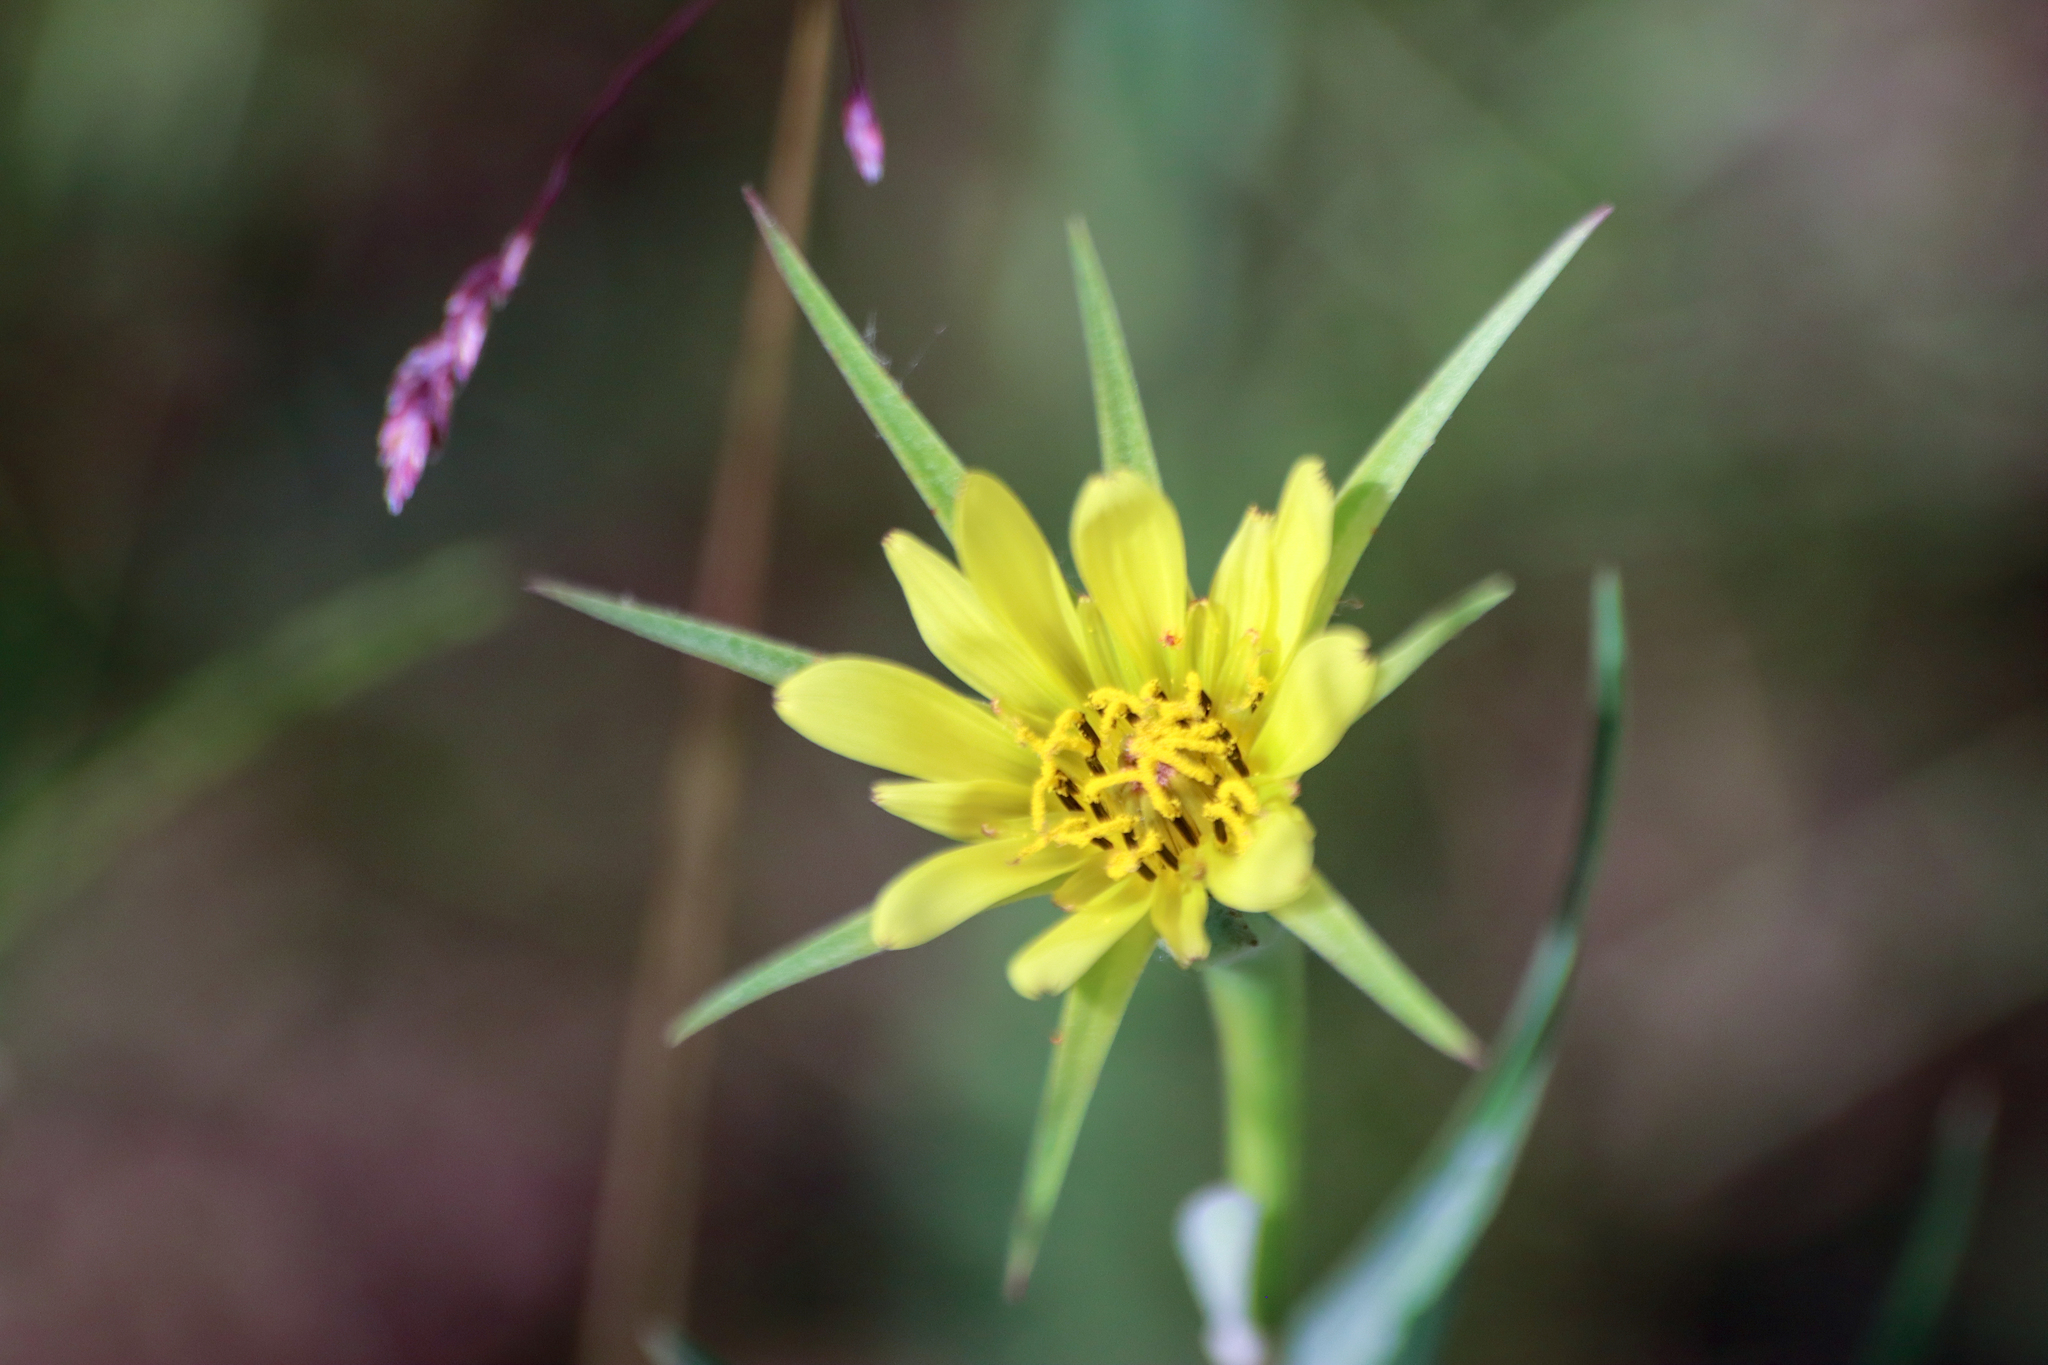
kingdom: Plantae
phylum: Tracheophyta
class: Magnoliopsida
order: Asterales
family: Asteraceae
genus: Tragopogon
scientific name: Tragopogon dubius
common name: Yellow salsify
